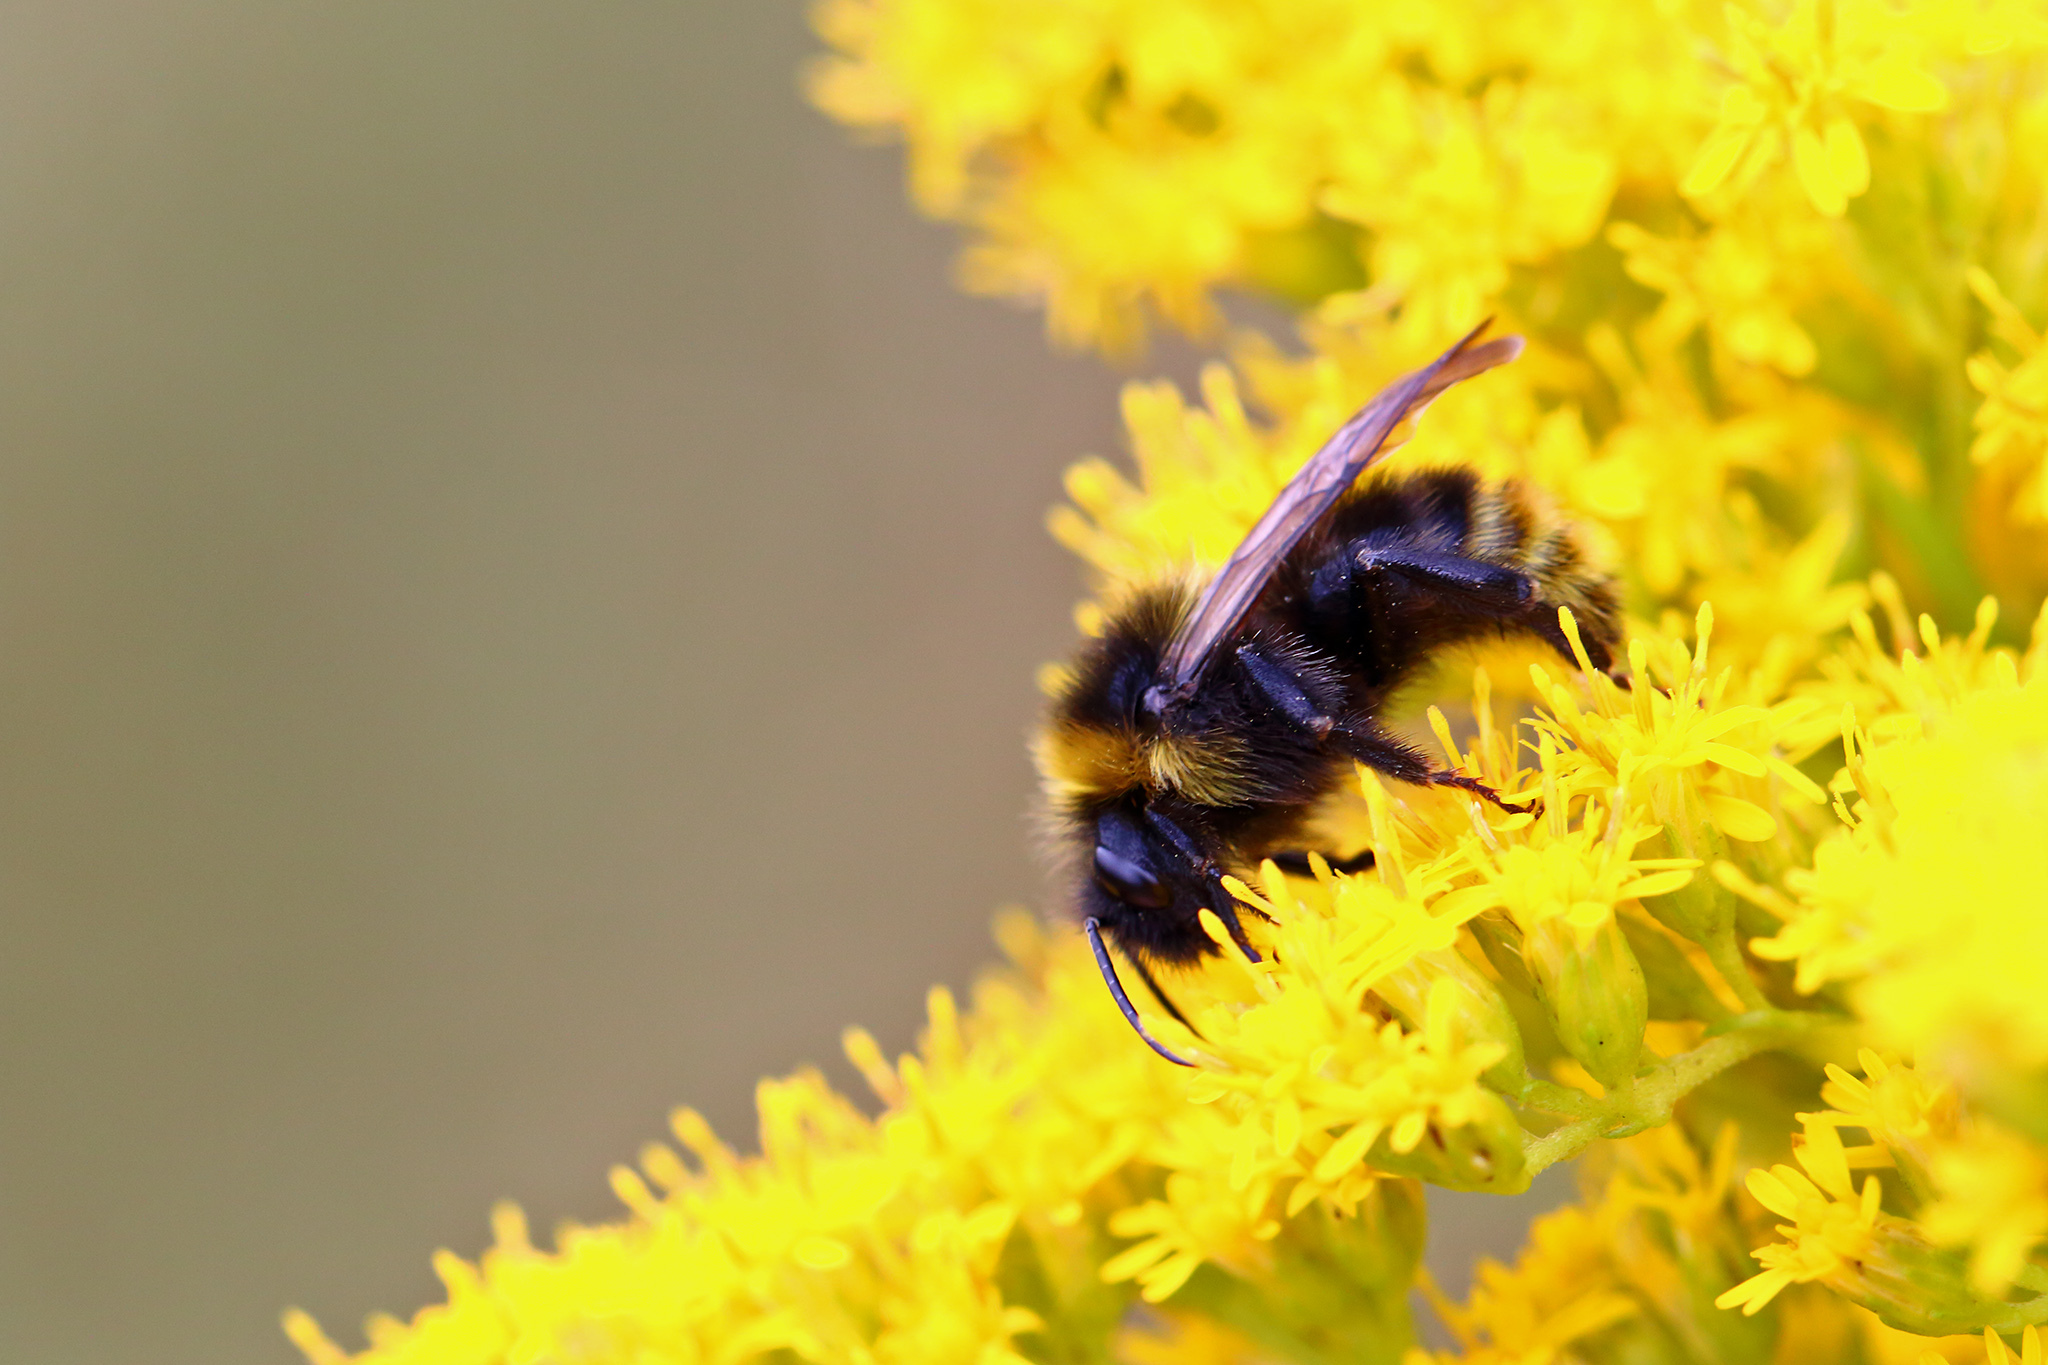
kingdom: Animalia
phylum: Arthropoda
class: Insecta
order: Hymenoptera
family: Apidae
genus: Bombus
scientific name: Bombus campestris
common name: Field cuckoo-bee
